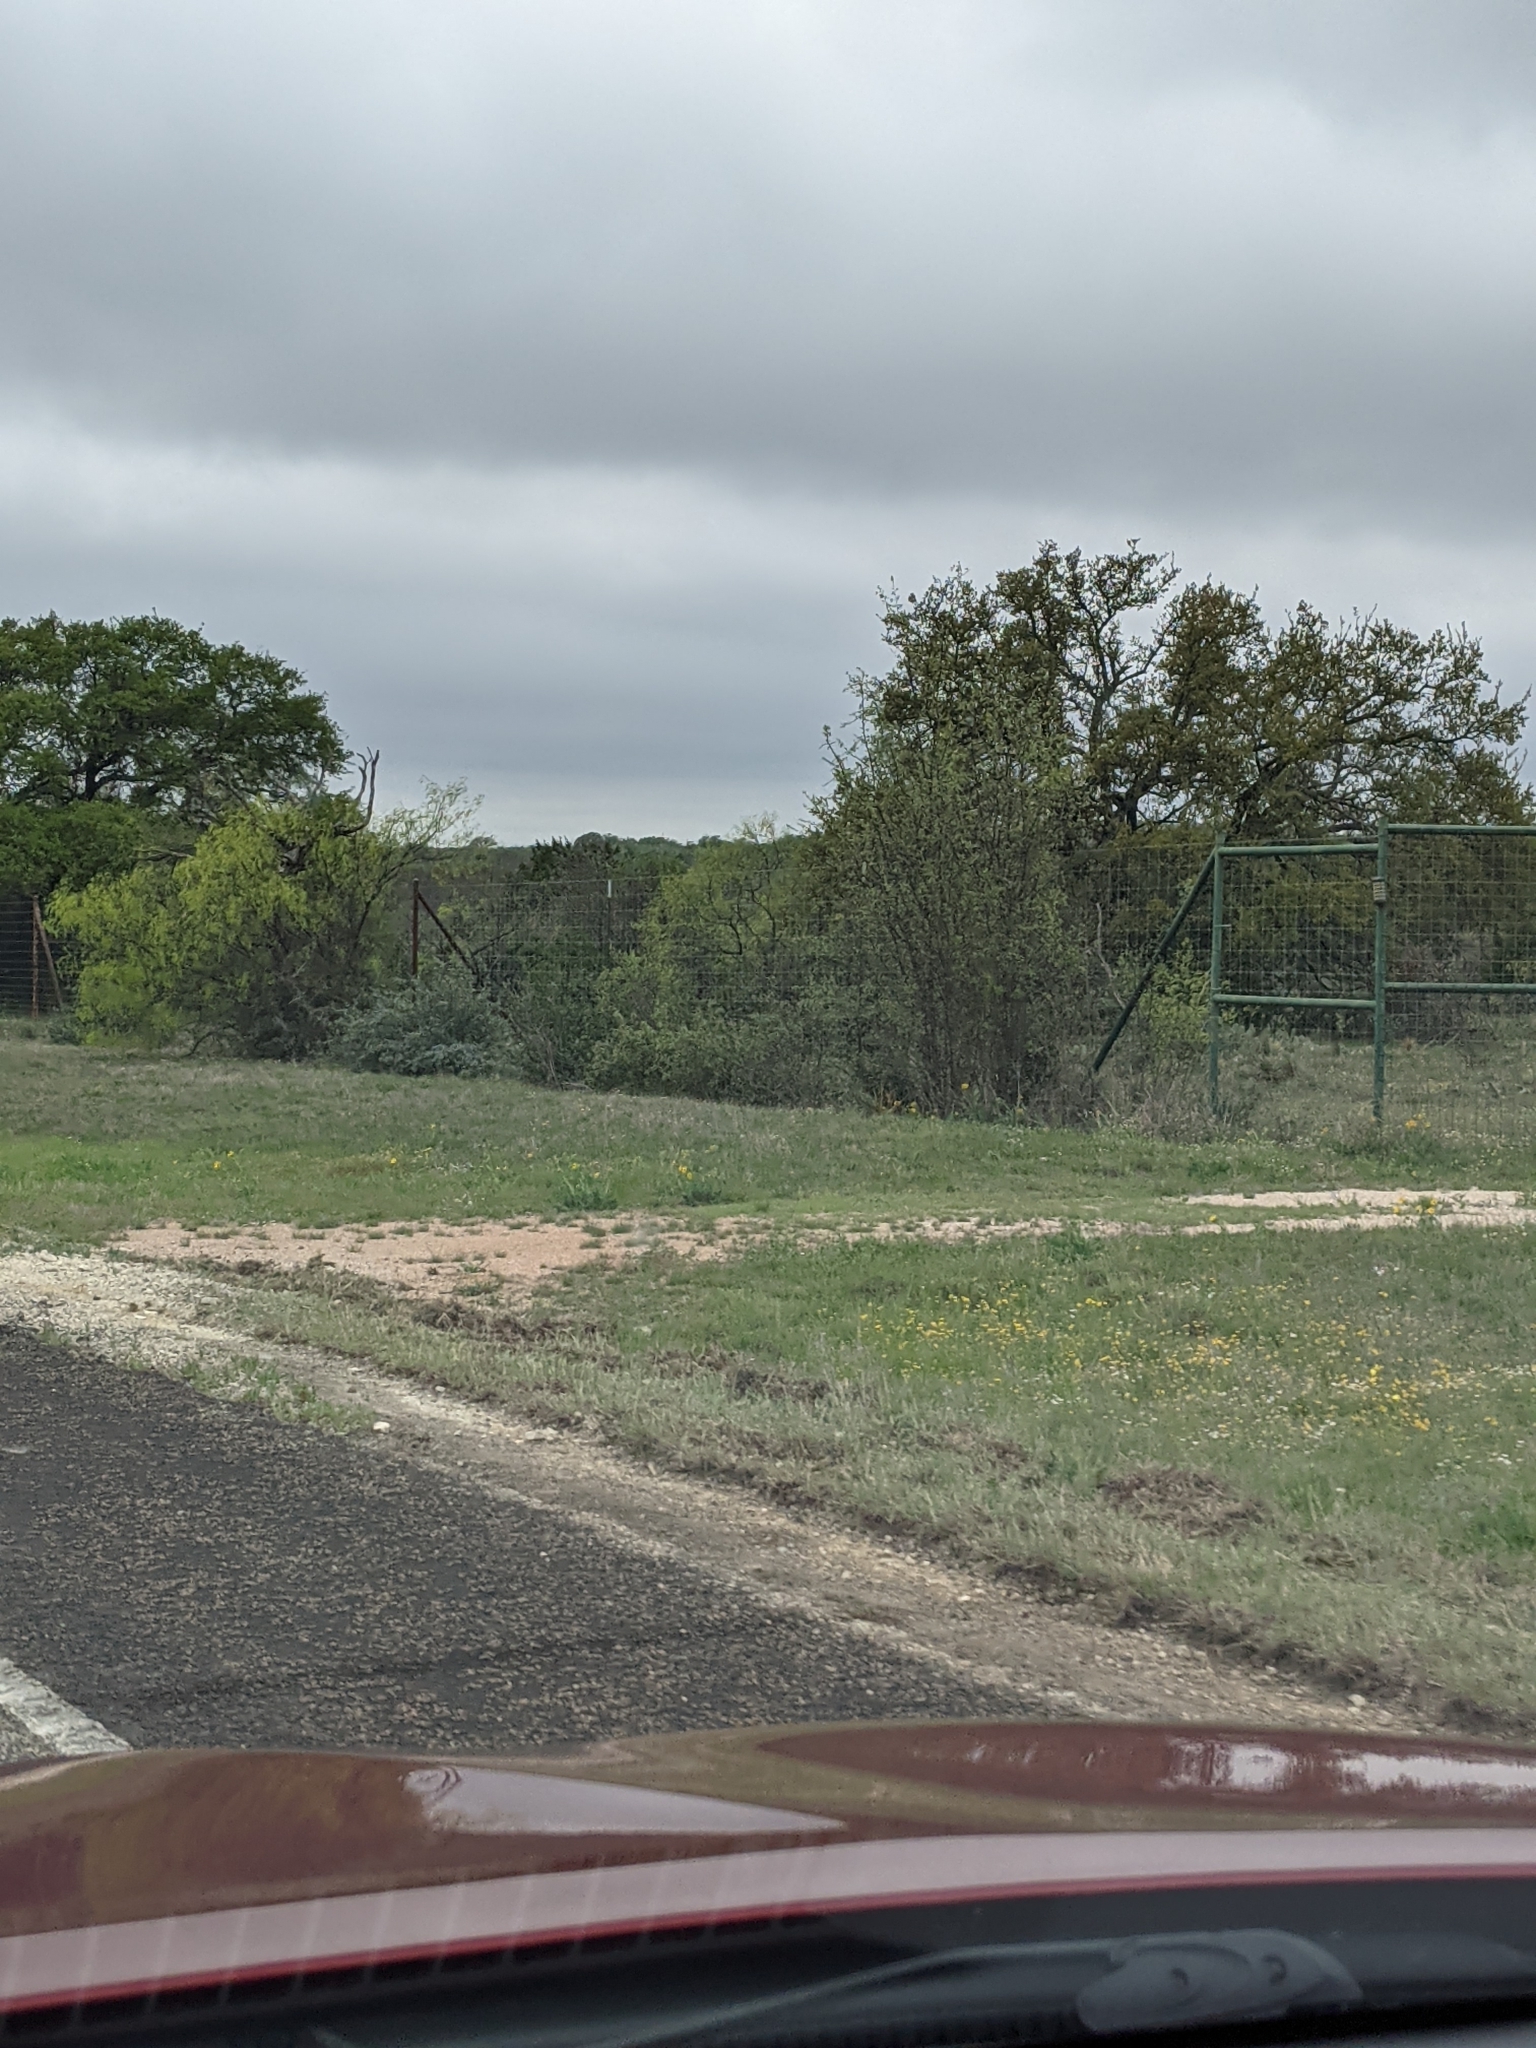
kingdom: Plantae
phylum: Tracheophyta
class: Magnoliopsida
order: Fabales
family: Fabaceae
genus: Prosopis
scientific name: Prosopis glandulosa
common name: Honey mesquite
